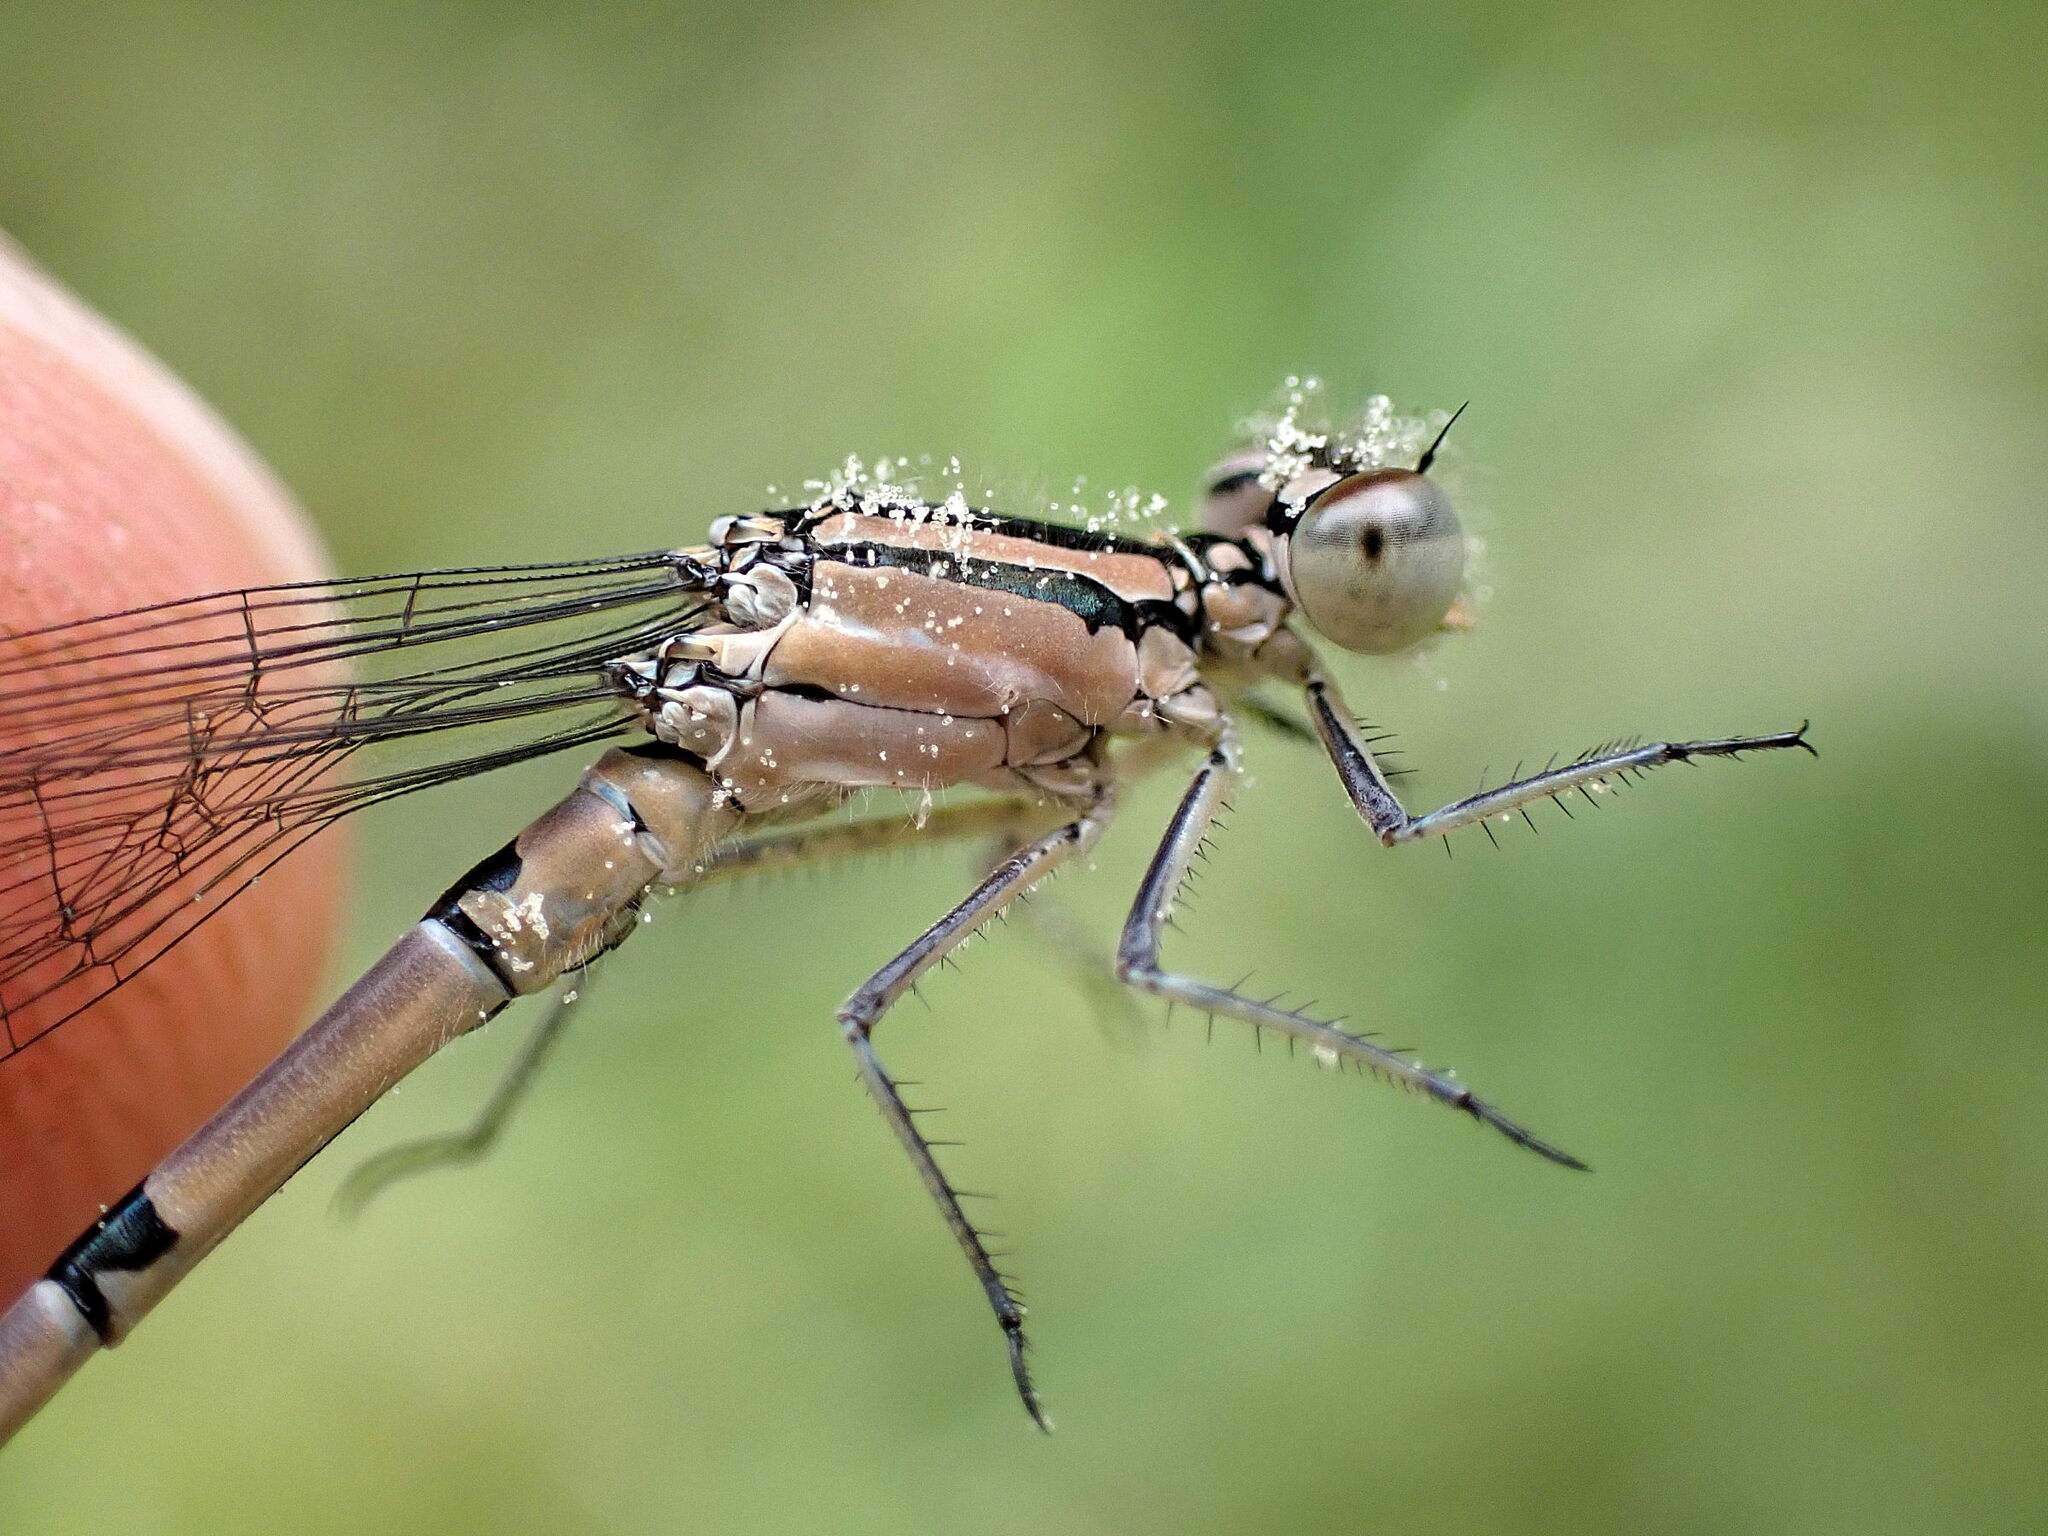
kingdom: Animalia
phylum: Arthropoda
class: Insecta
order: Odonata
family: Coenagrionidae
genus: Enallagma
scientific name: Enallagma cyathigerum
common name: Common blue damselfly
